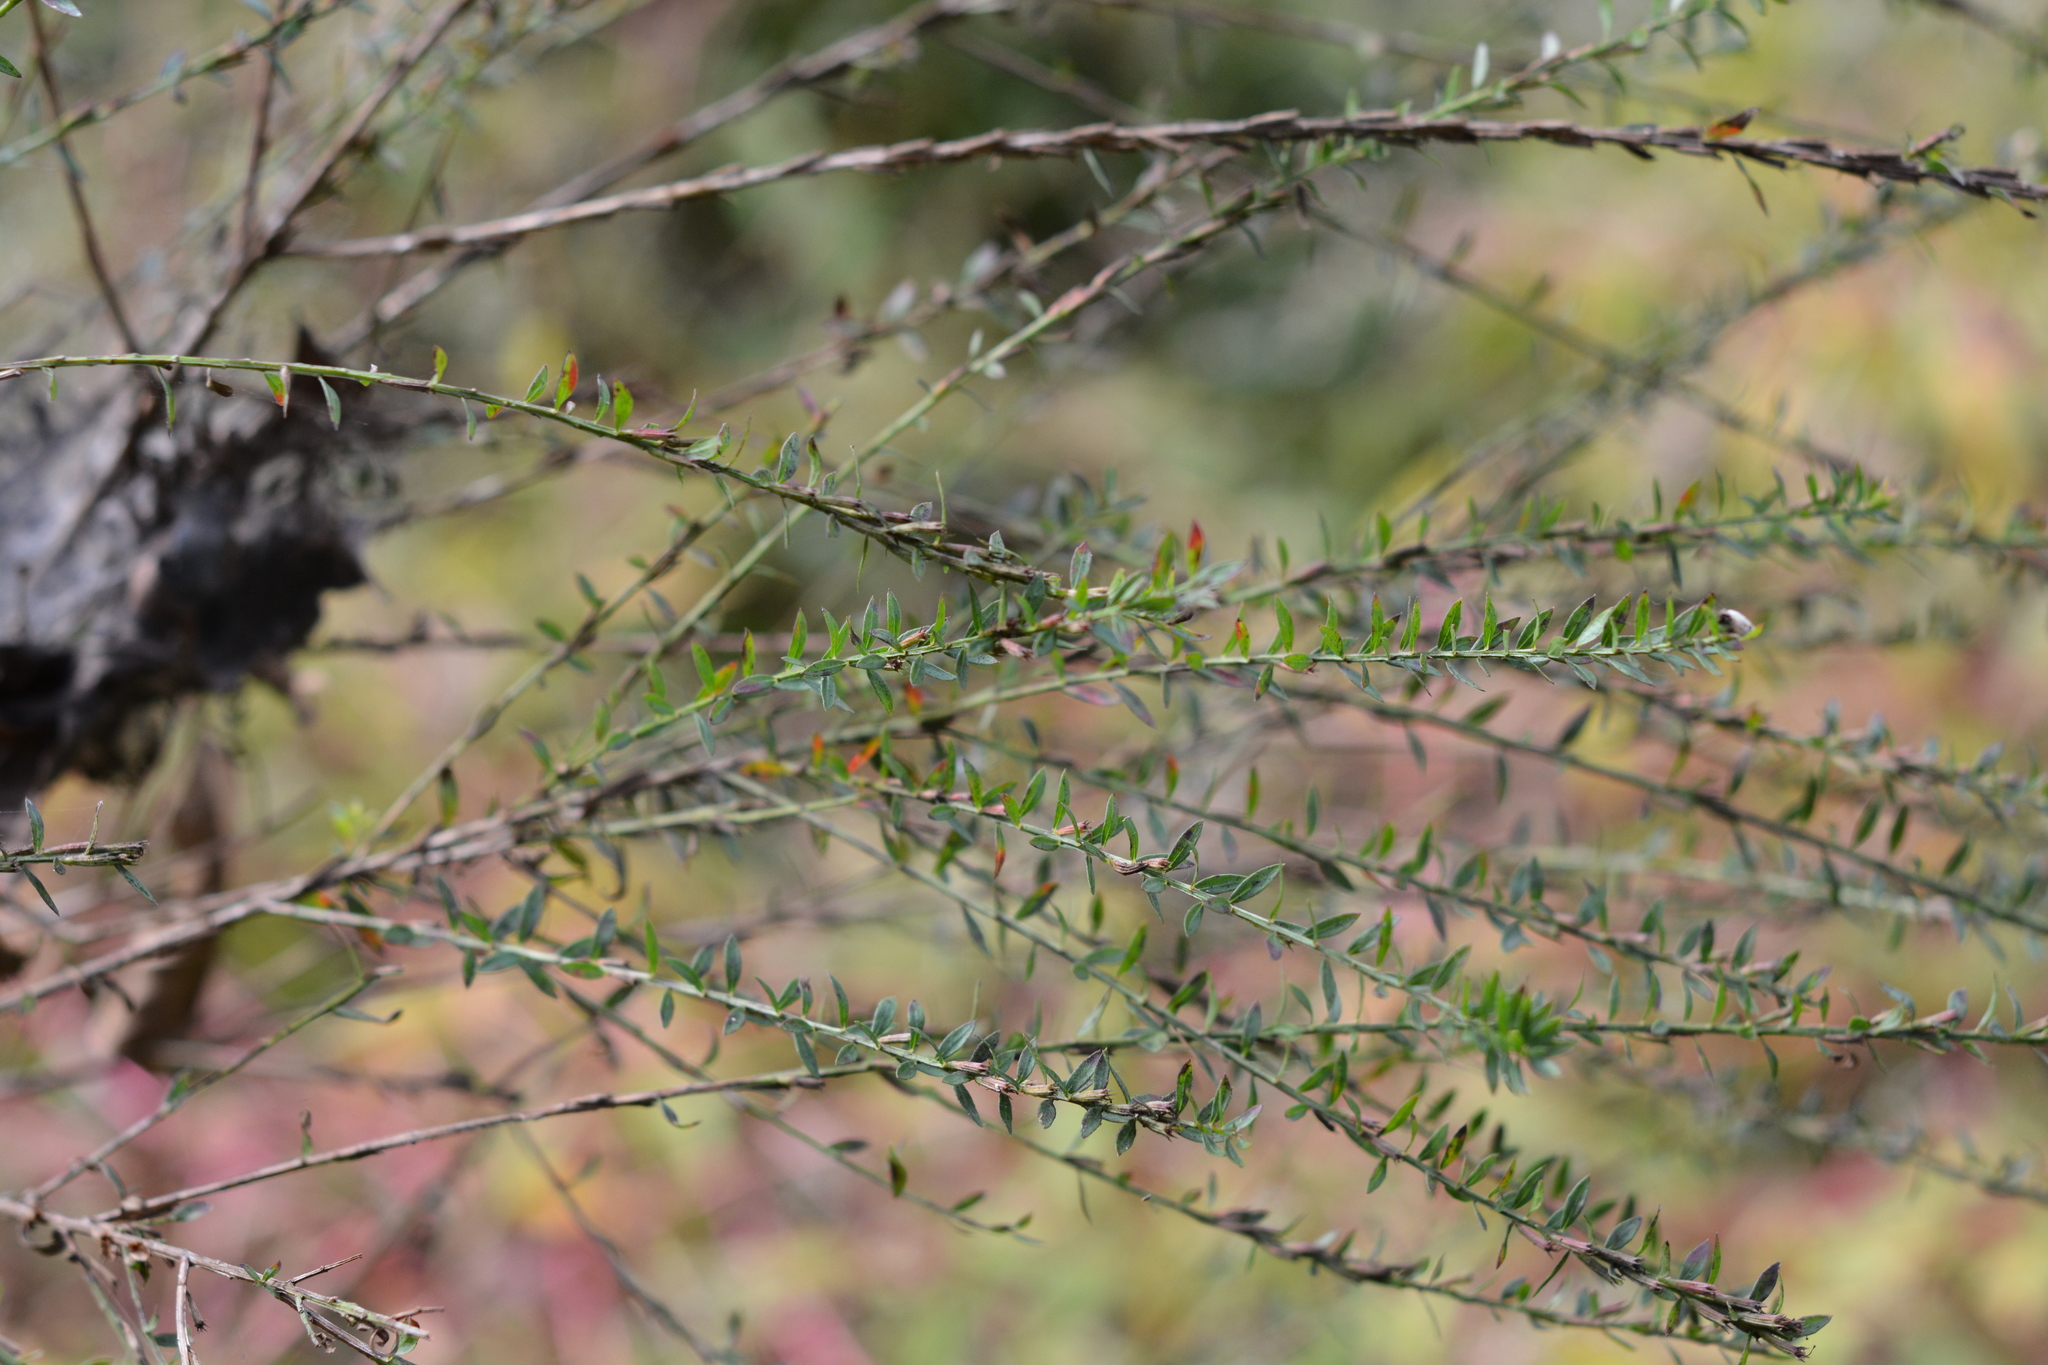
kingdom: Plantae
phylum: Tracheophyta
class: Magnoliopsida
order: Myrtales
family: Lythraceae
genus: Lythrum
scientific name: Lythrum alatum
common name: Winged loosestrife
